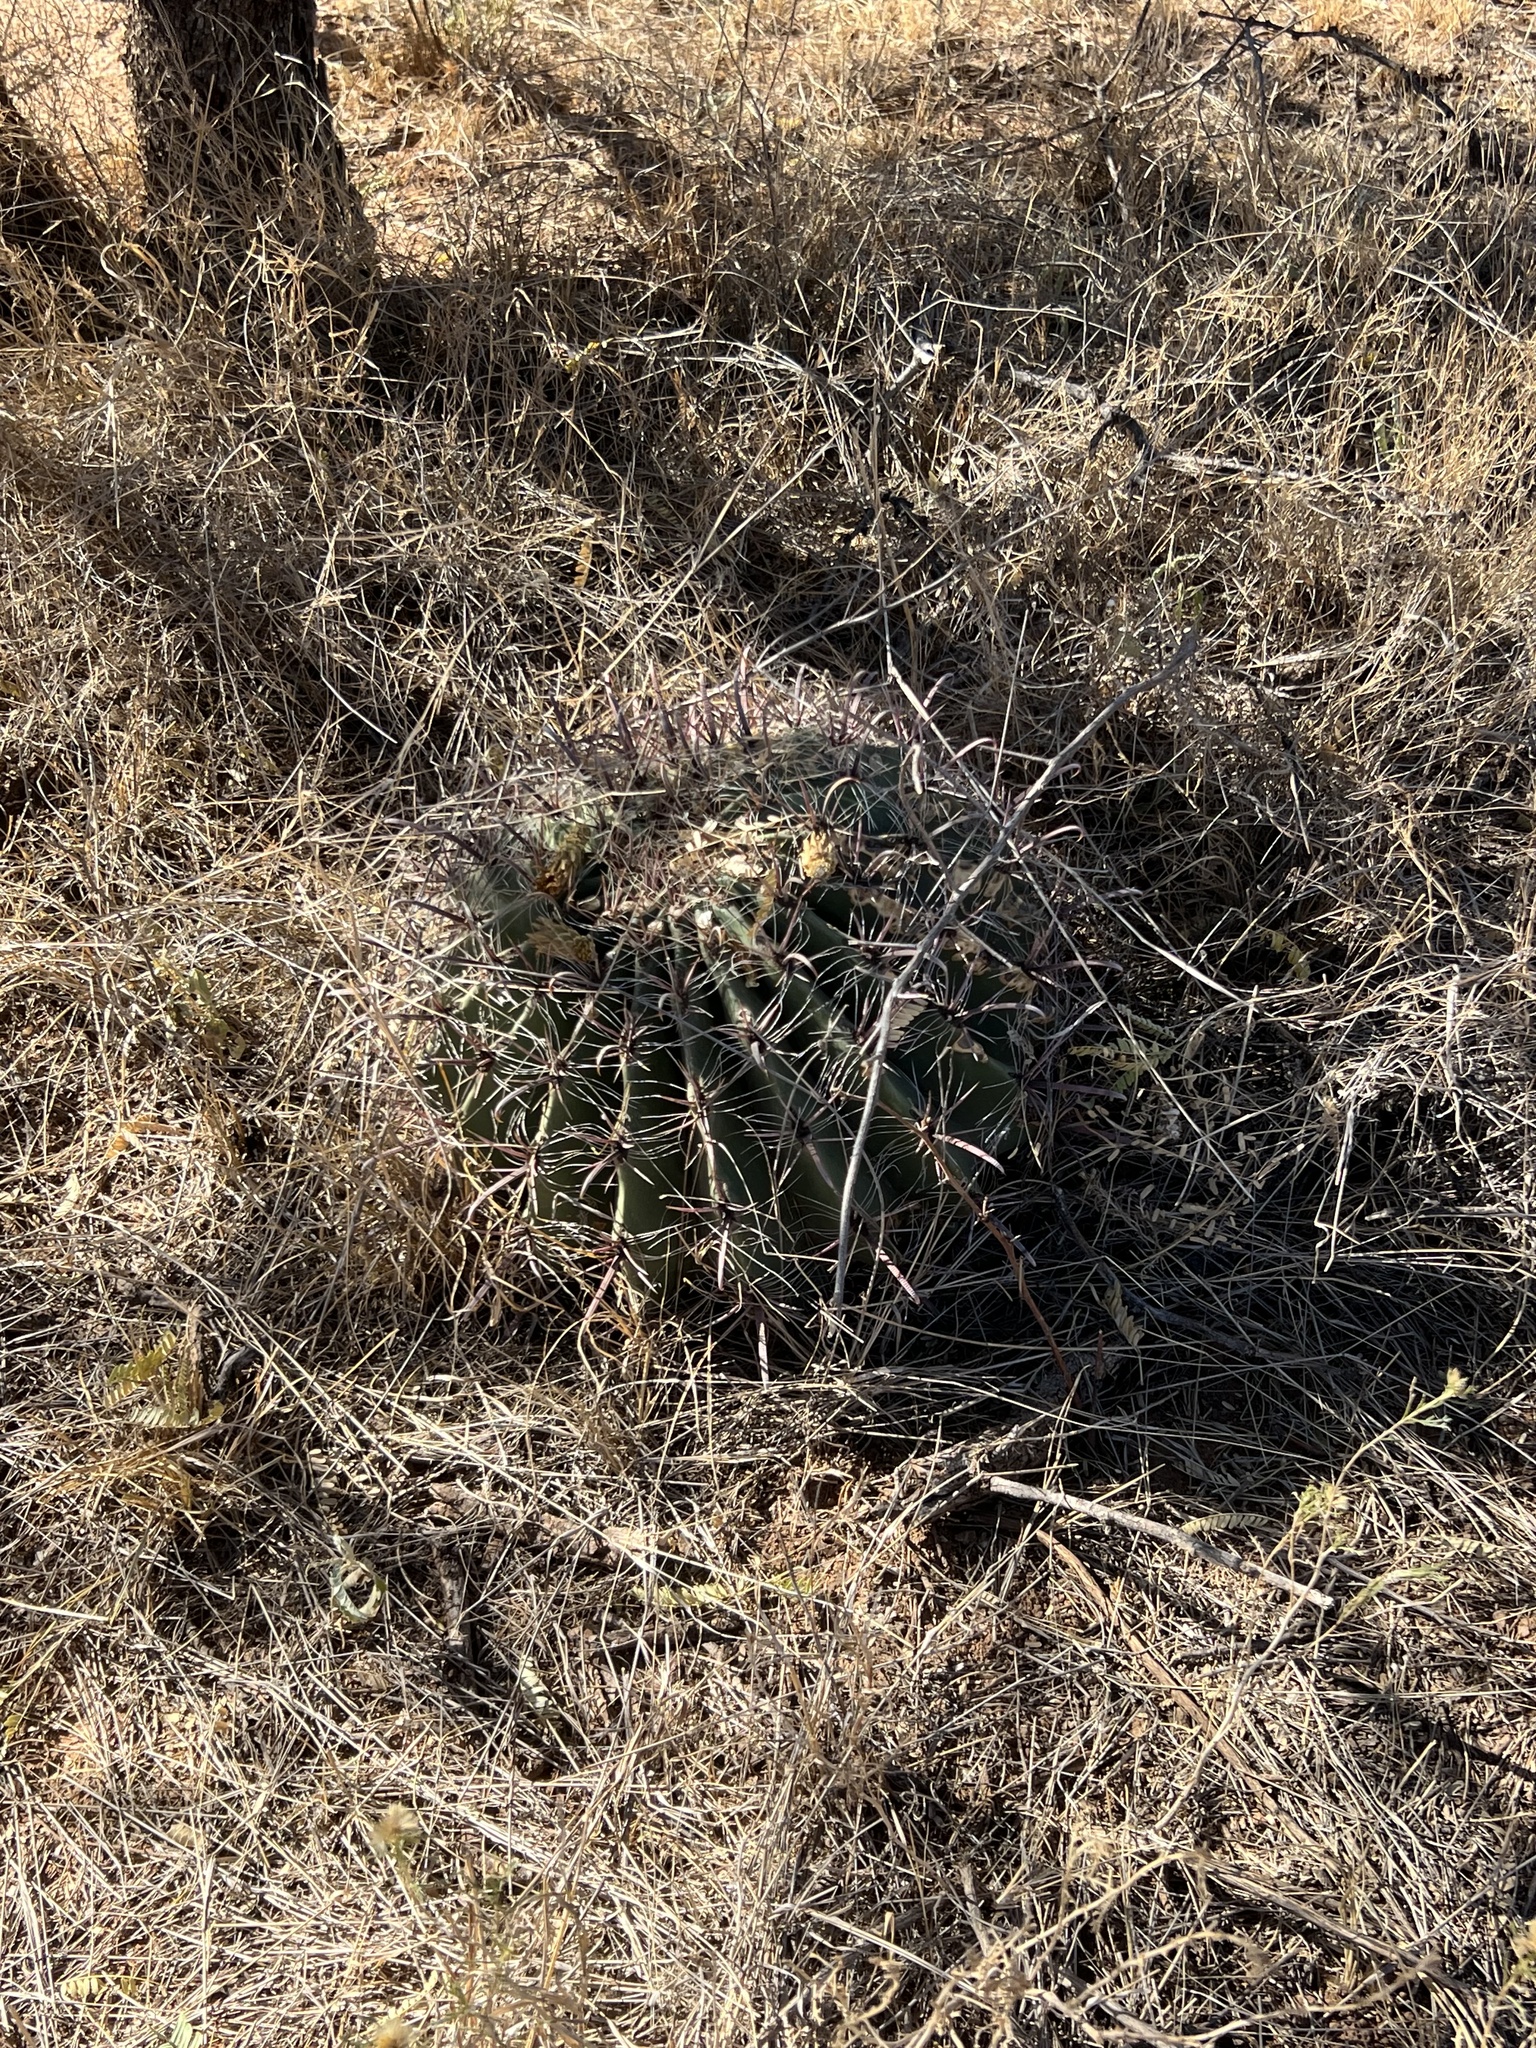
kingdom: Plantae
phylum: Tracheophyta
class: Magnoliopsida
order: Caryophyllales
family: Cactaceae
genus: Ferocactus
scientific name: Ferocactus wislizeni
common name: Candy barrel cactus
